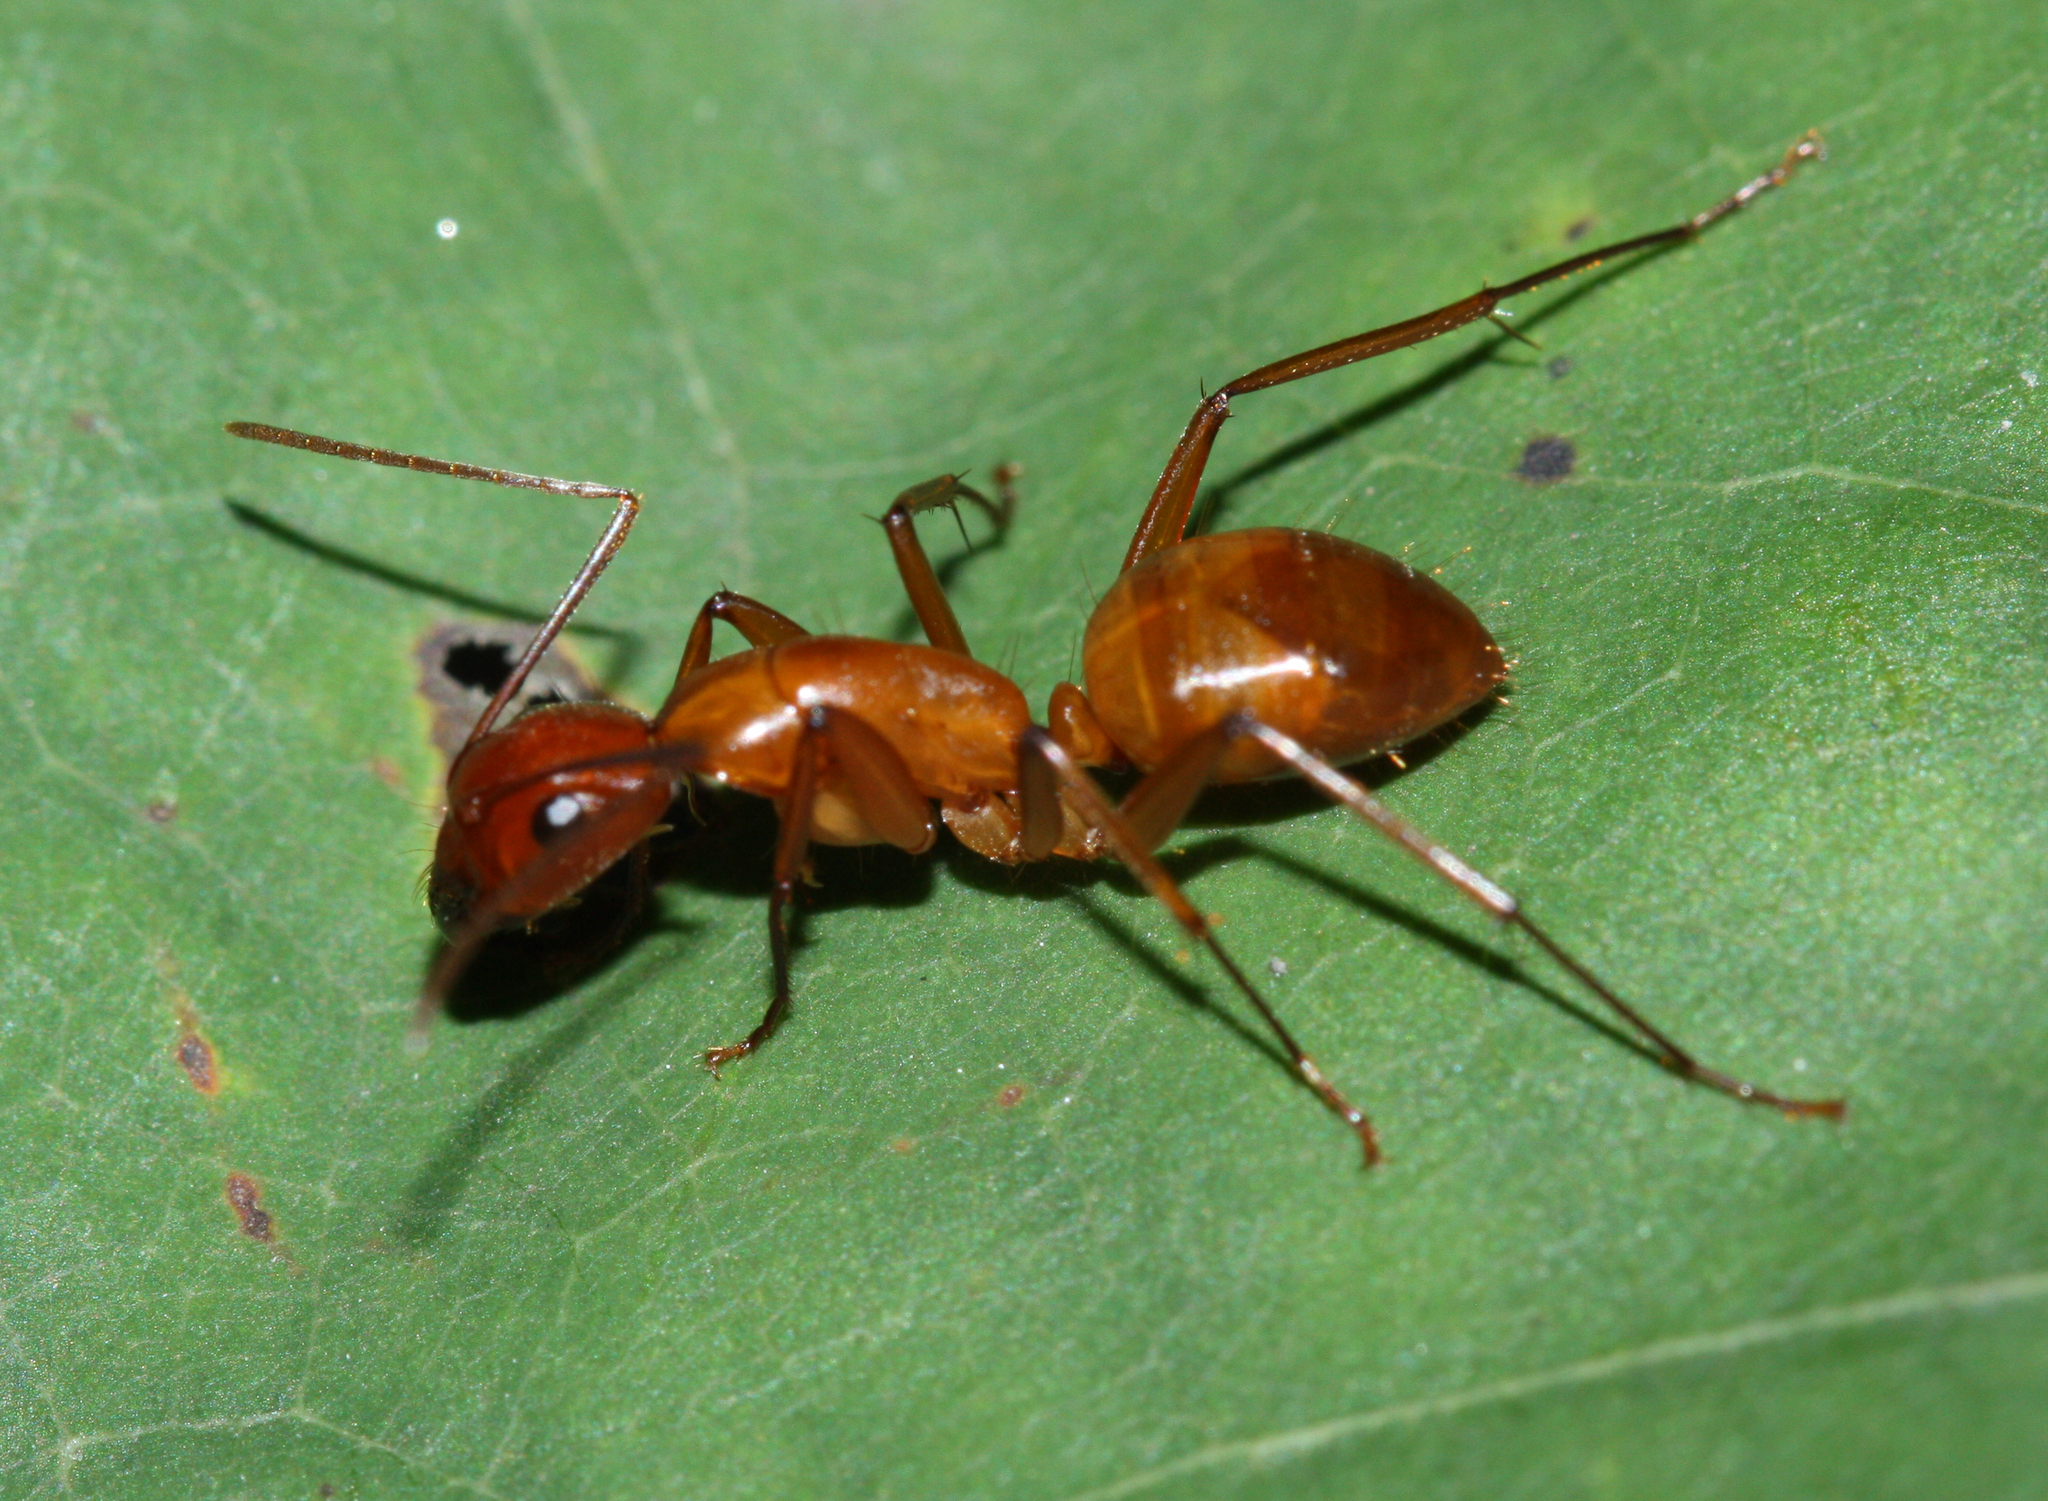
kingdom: Animalia
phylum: Arthropoda
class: Insecta
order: Hymenoptera
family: Formicidae
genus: Camponotus
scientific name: Camponotus castaneus
